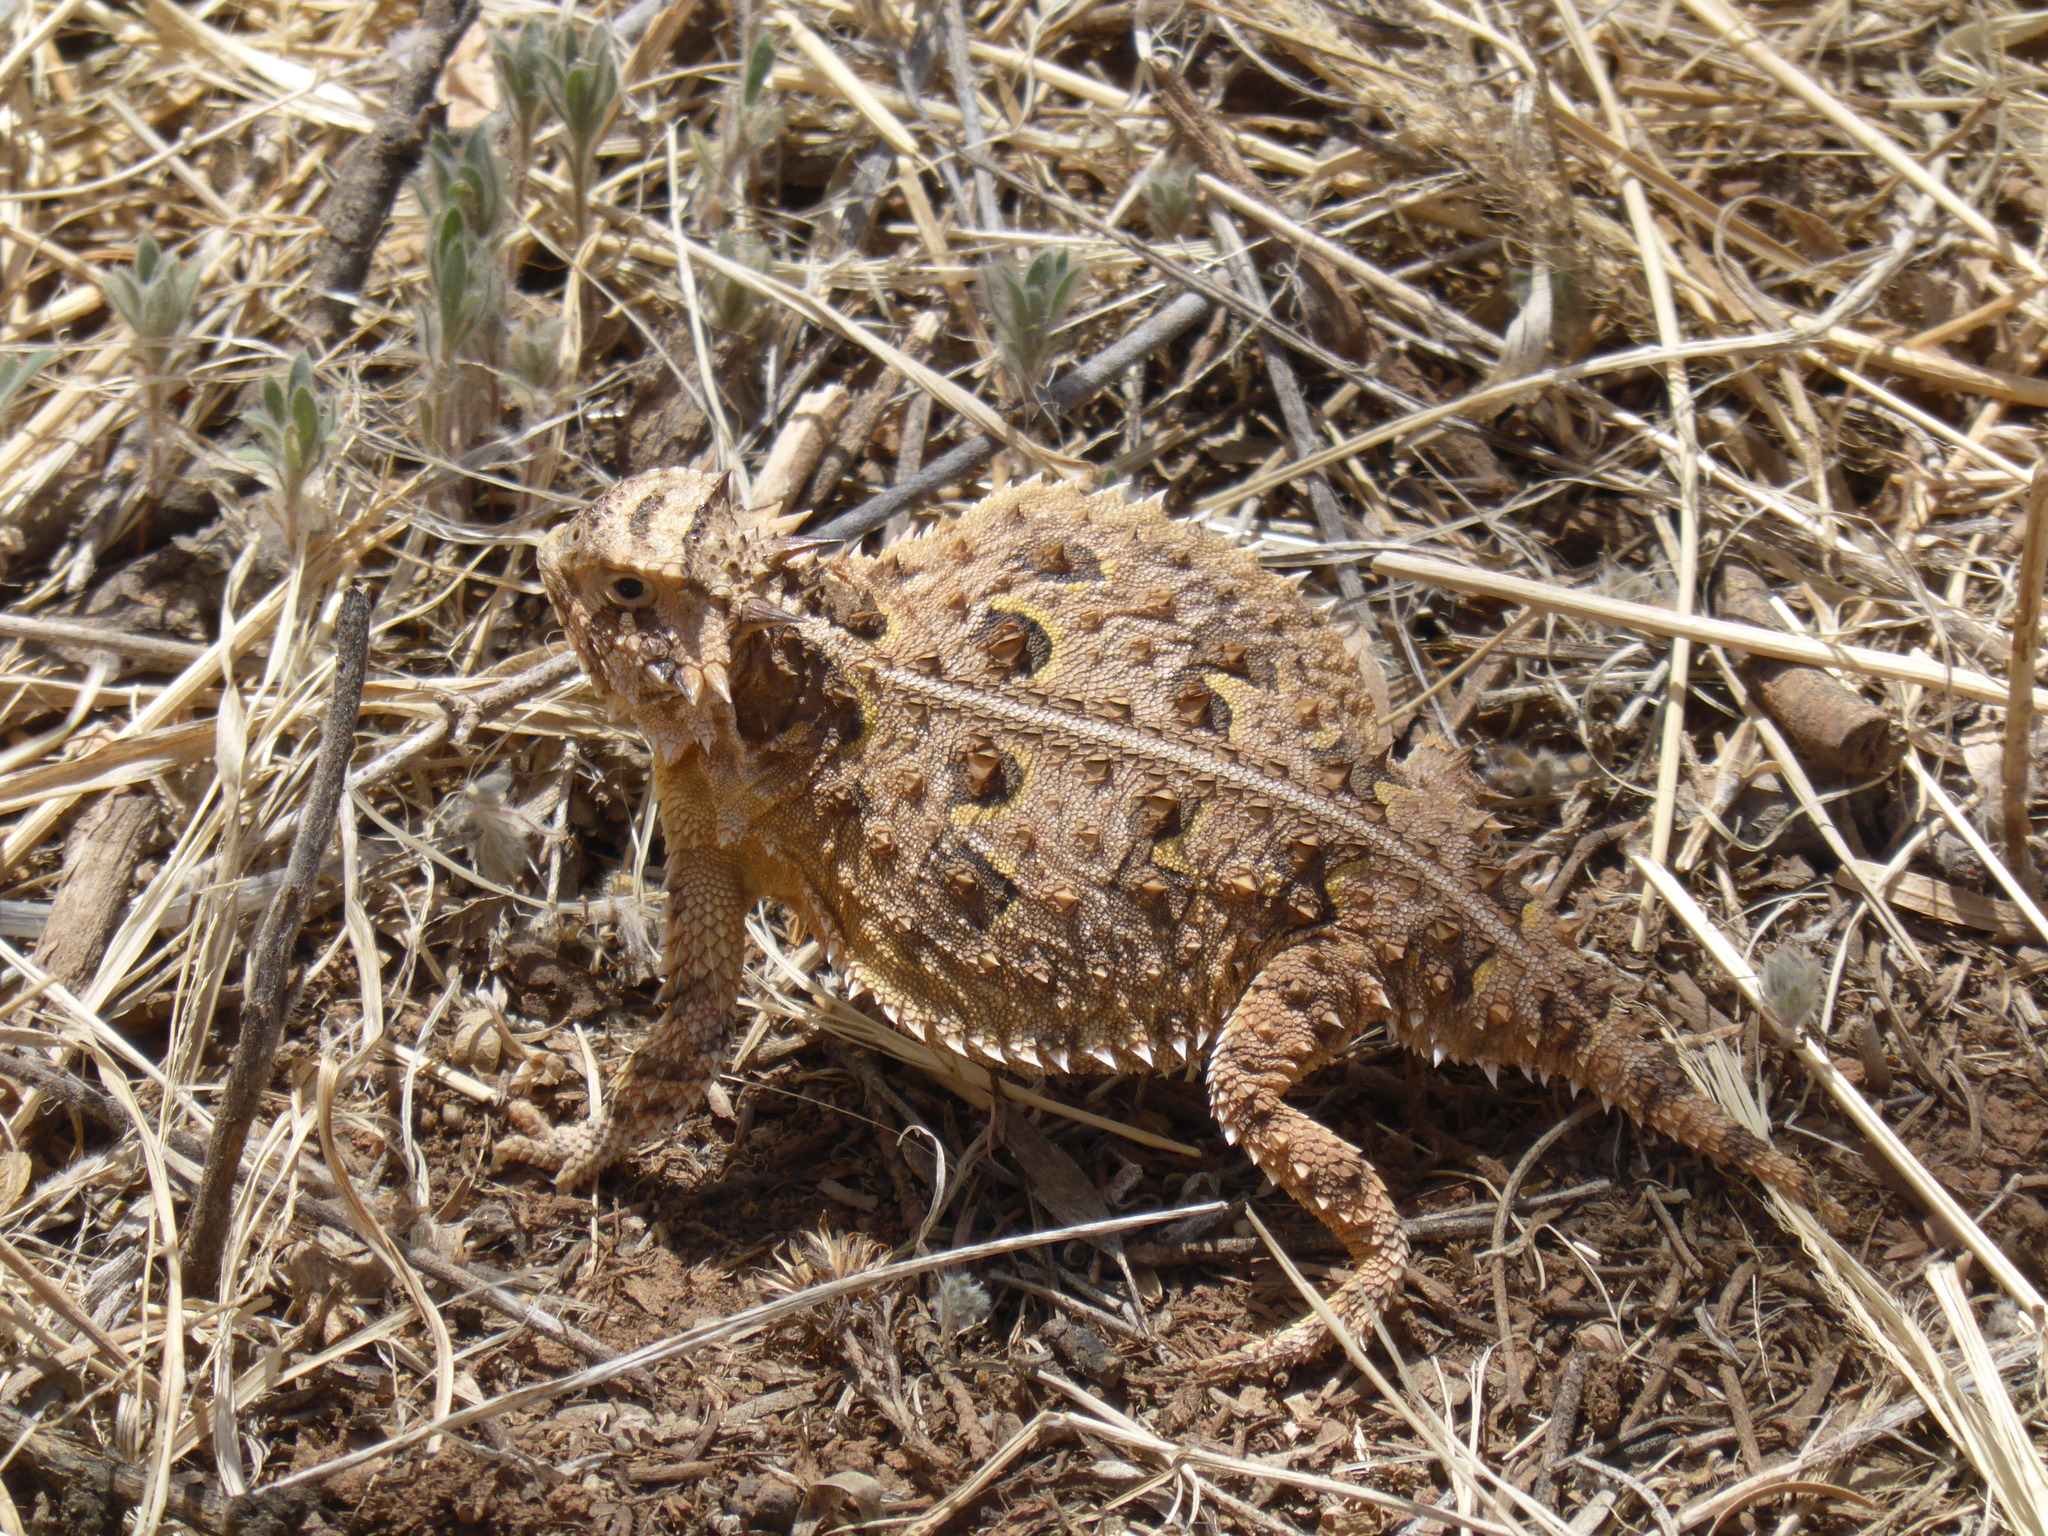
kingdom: Animalia
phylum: Chordata
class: Squamata
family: Phrynosomatidae
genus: Phrynosoma
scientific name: Phrynosoma cornutum
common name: Texas horned lizard
